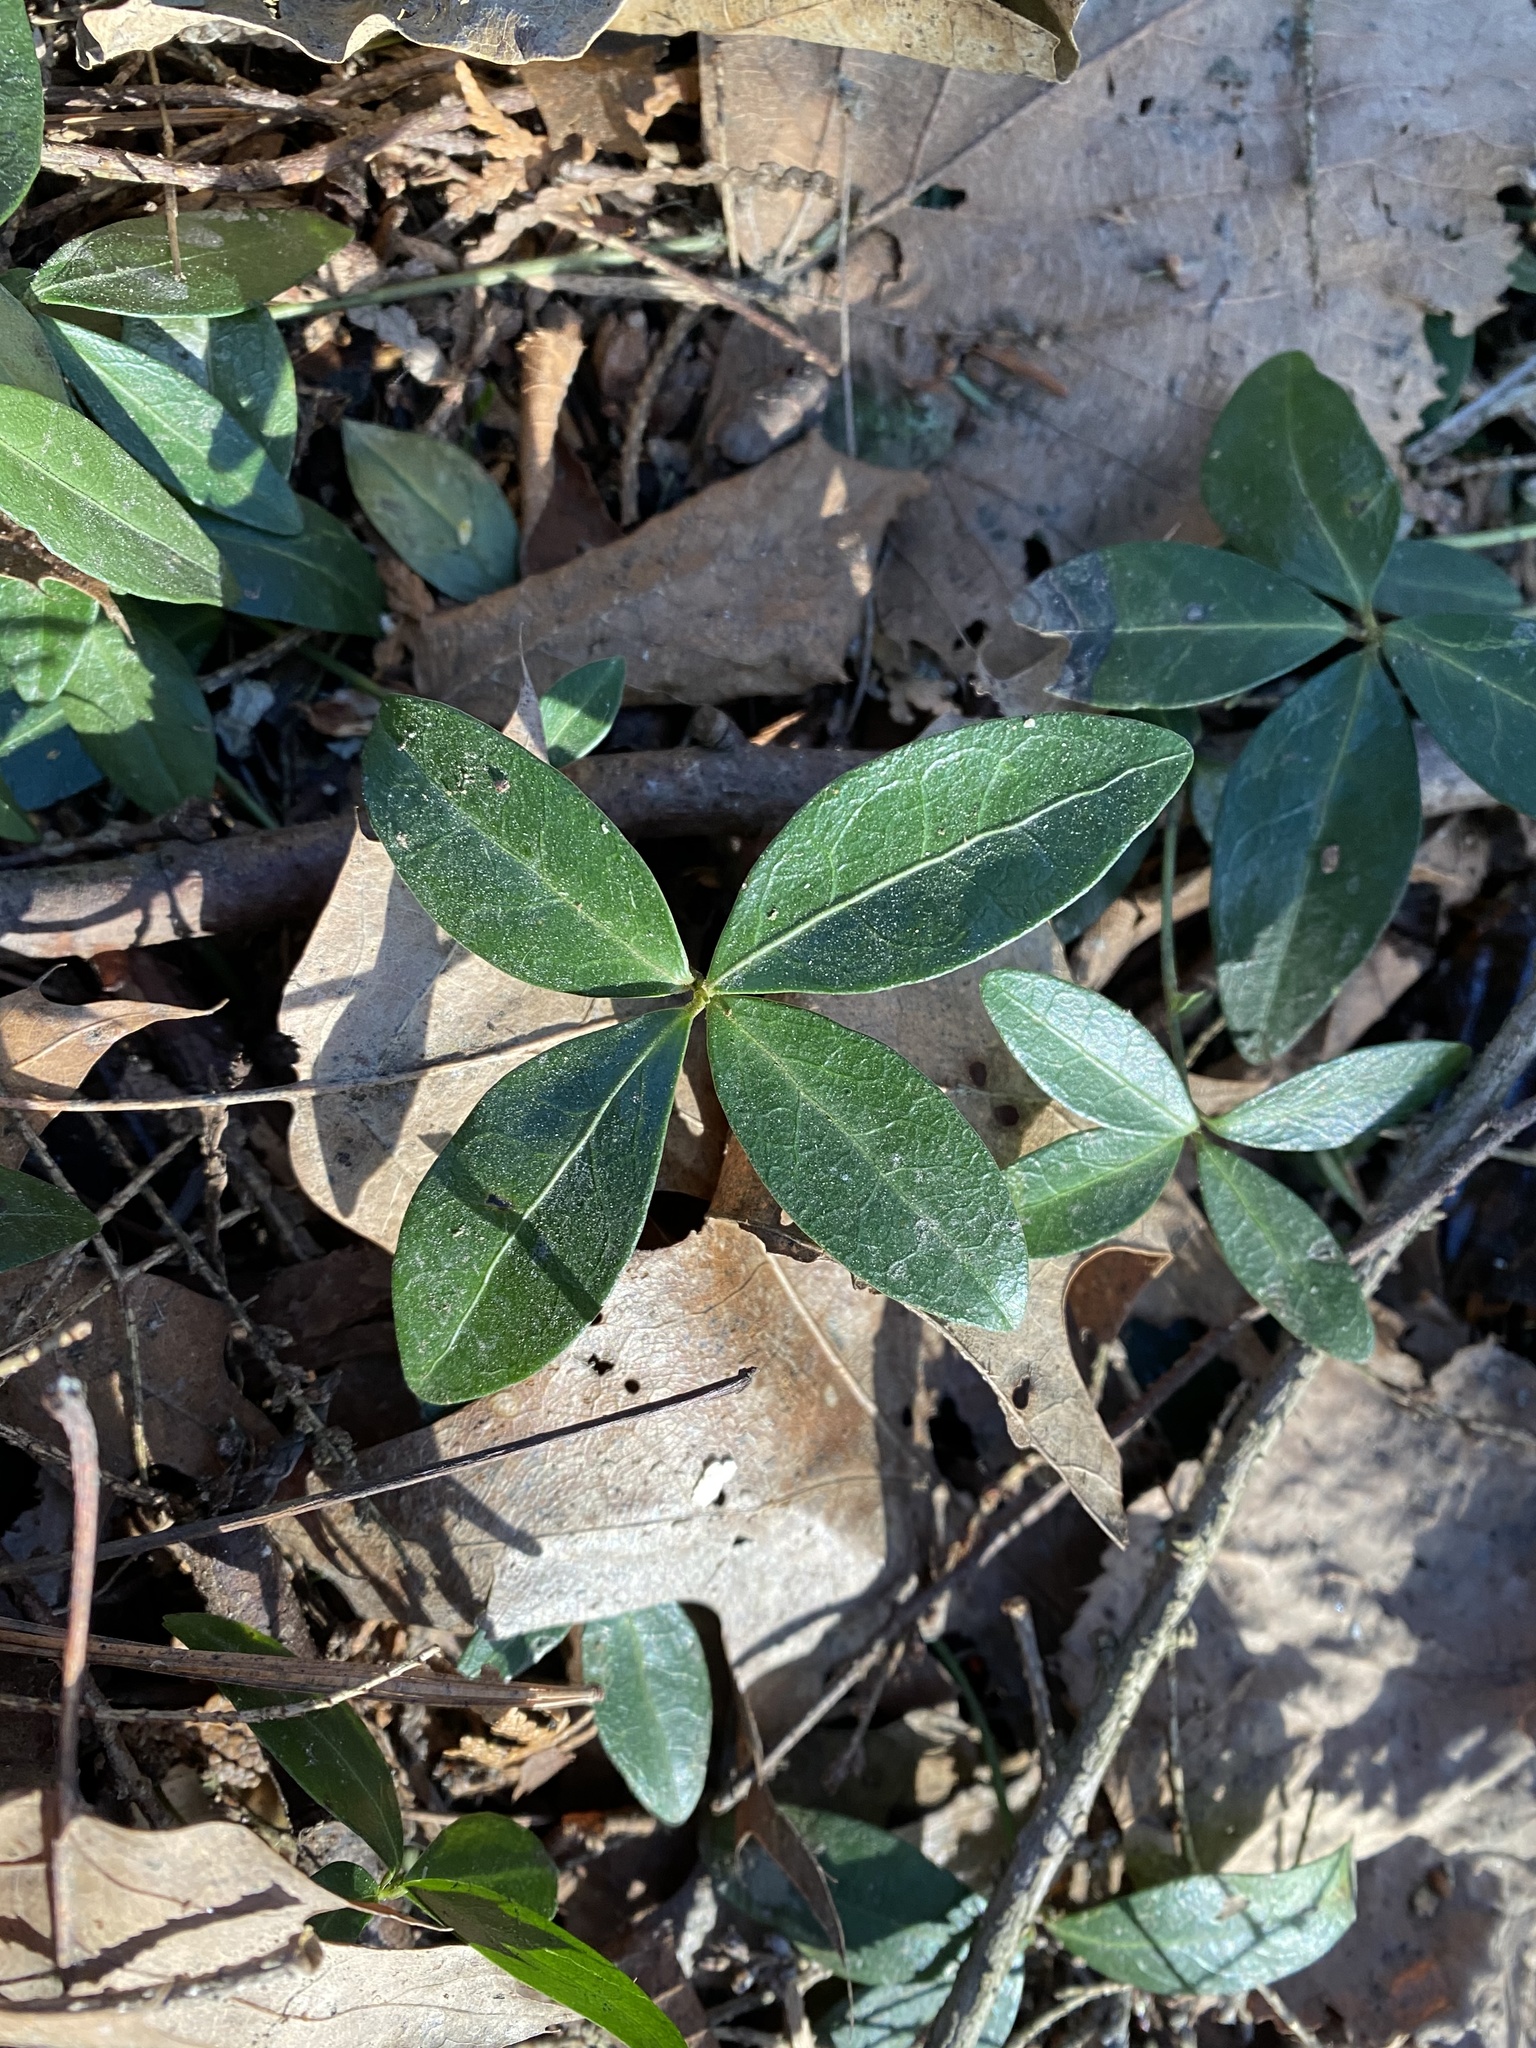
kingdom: Plantae
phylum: Tracheophyta
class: Magnoliopsida
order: Gentianales
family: Apocynaceae
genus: Vinca
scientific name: Vinca minor
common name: Lesser periwinkle
